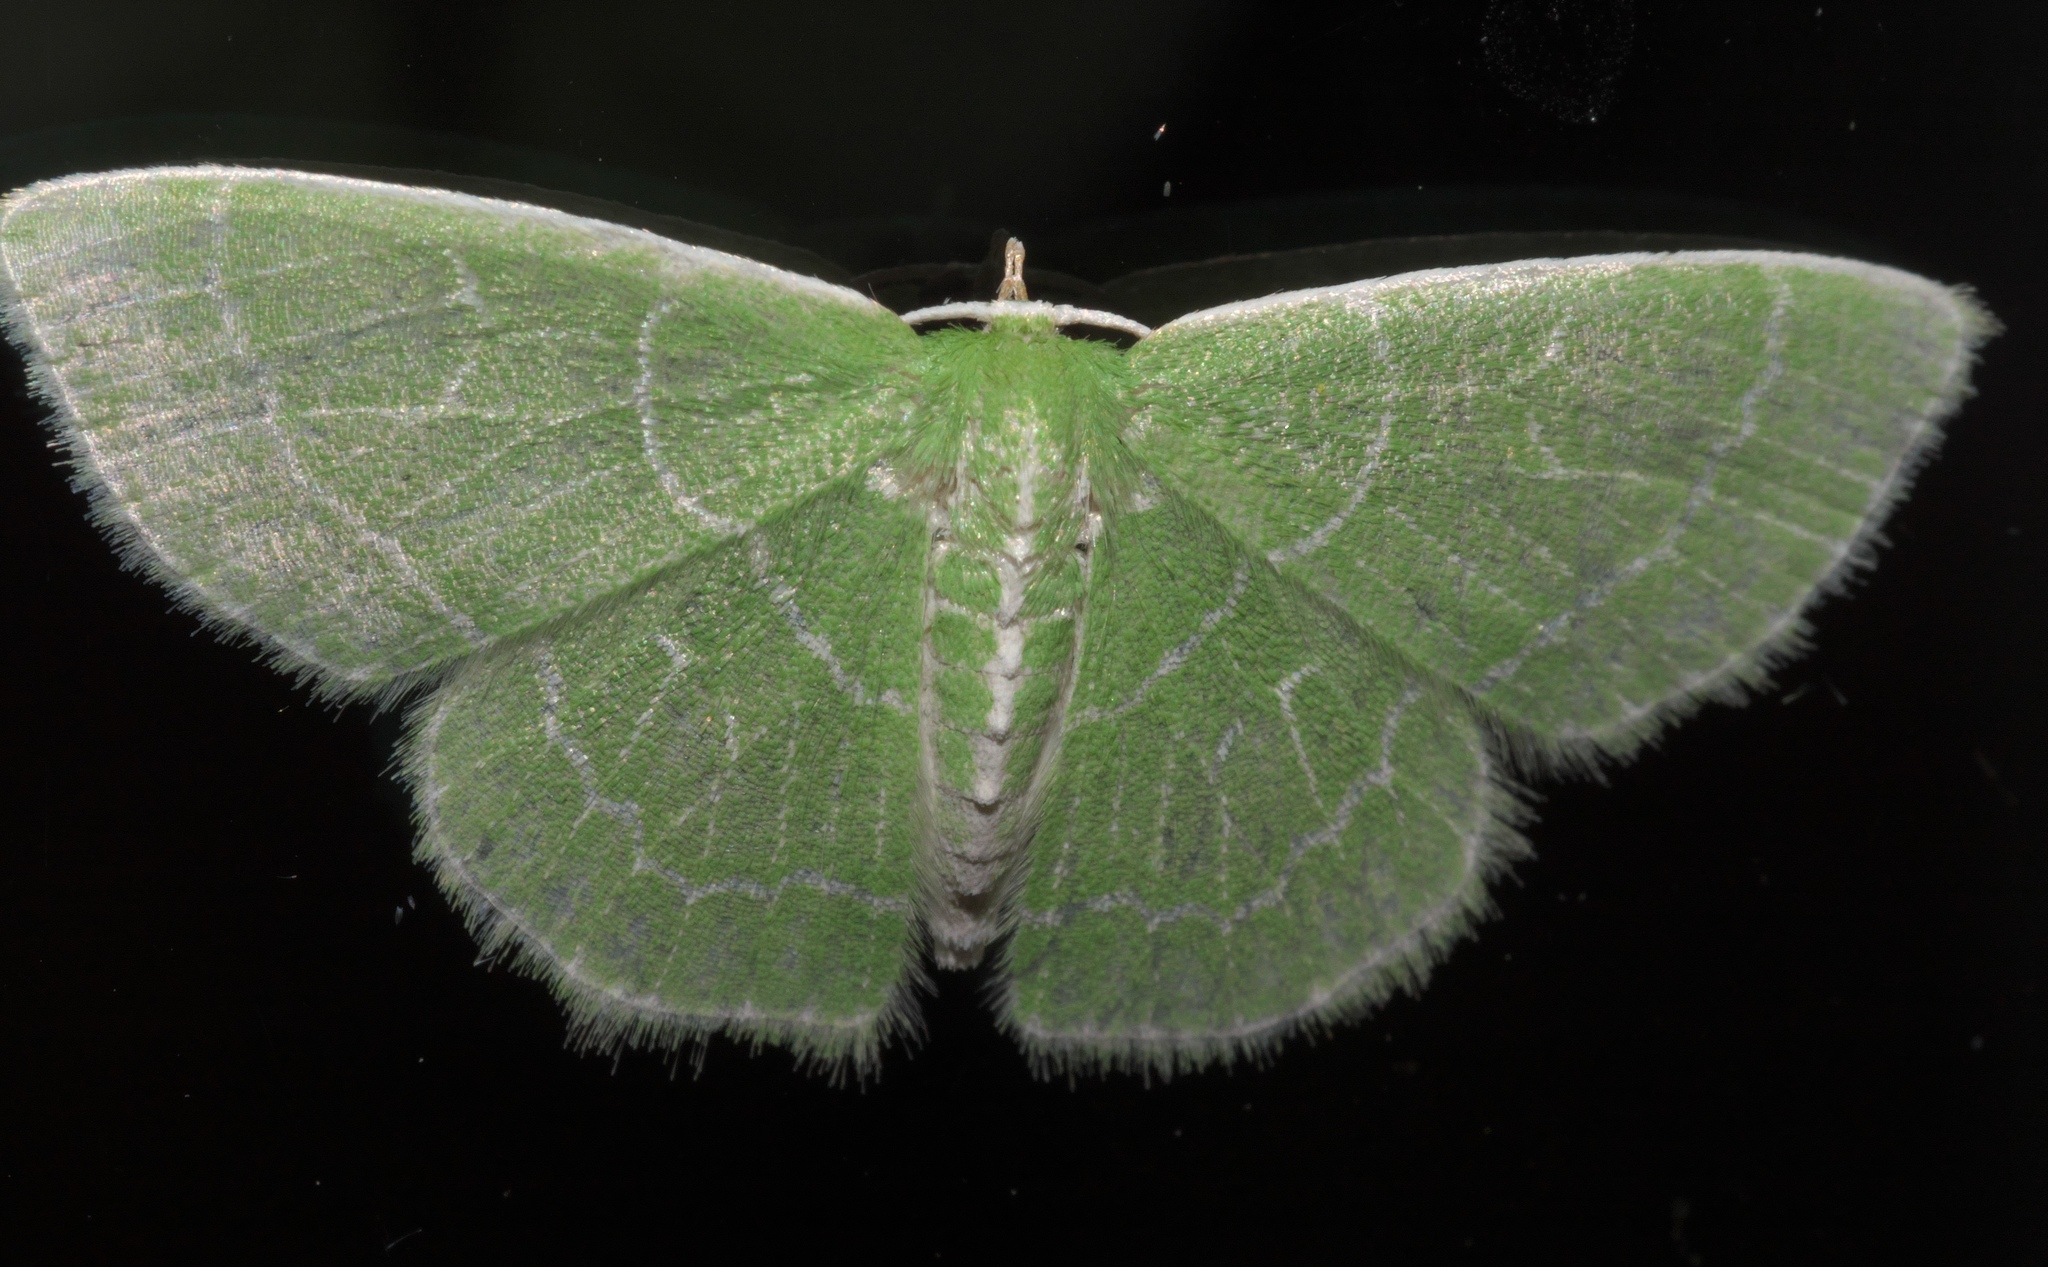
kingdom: Animalia
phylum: Arthropoda
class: Insecta
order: Lepidoptera
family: Geometridae
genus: Synchlora
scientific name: Synchlora aerata
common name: Wavy-lined emerald
